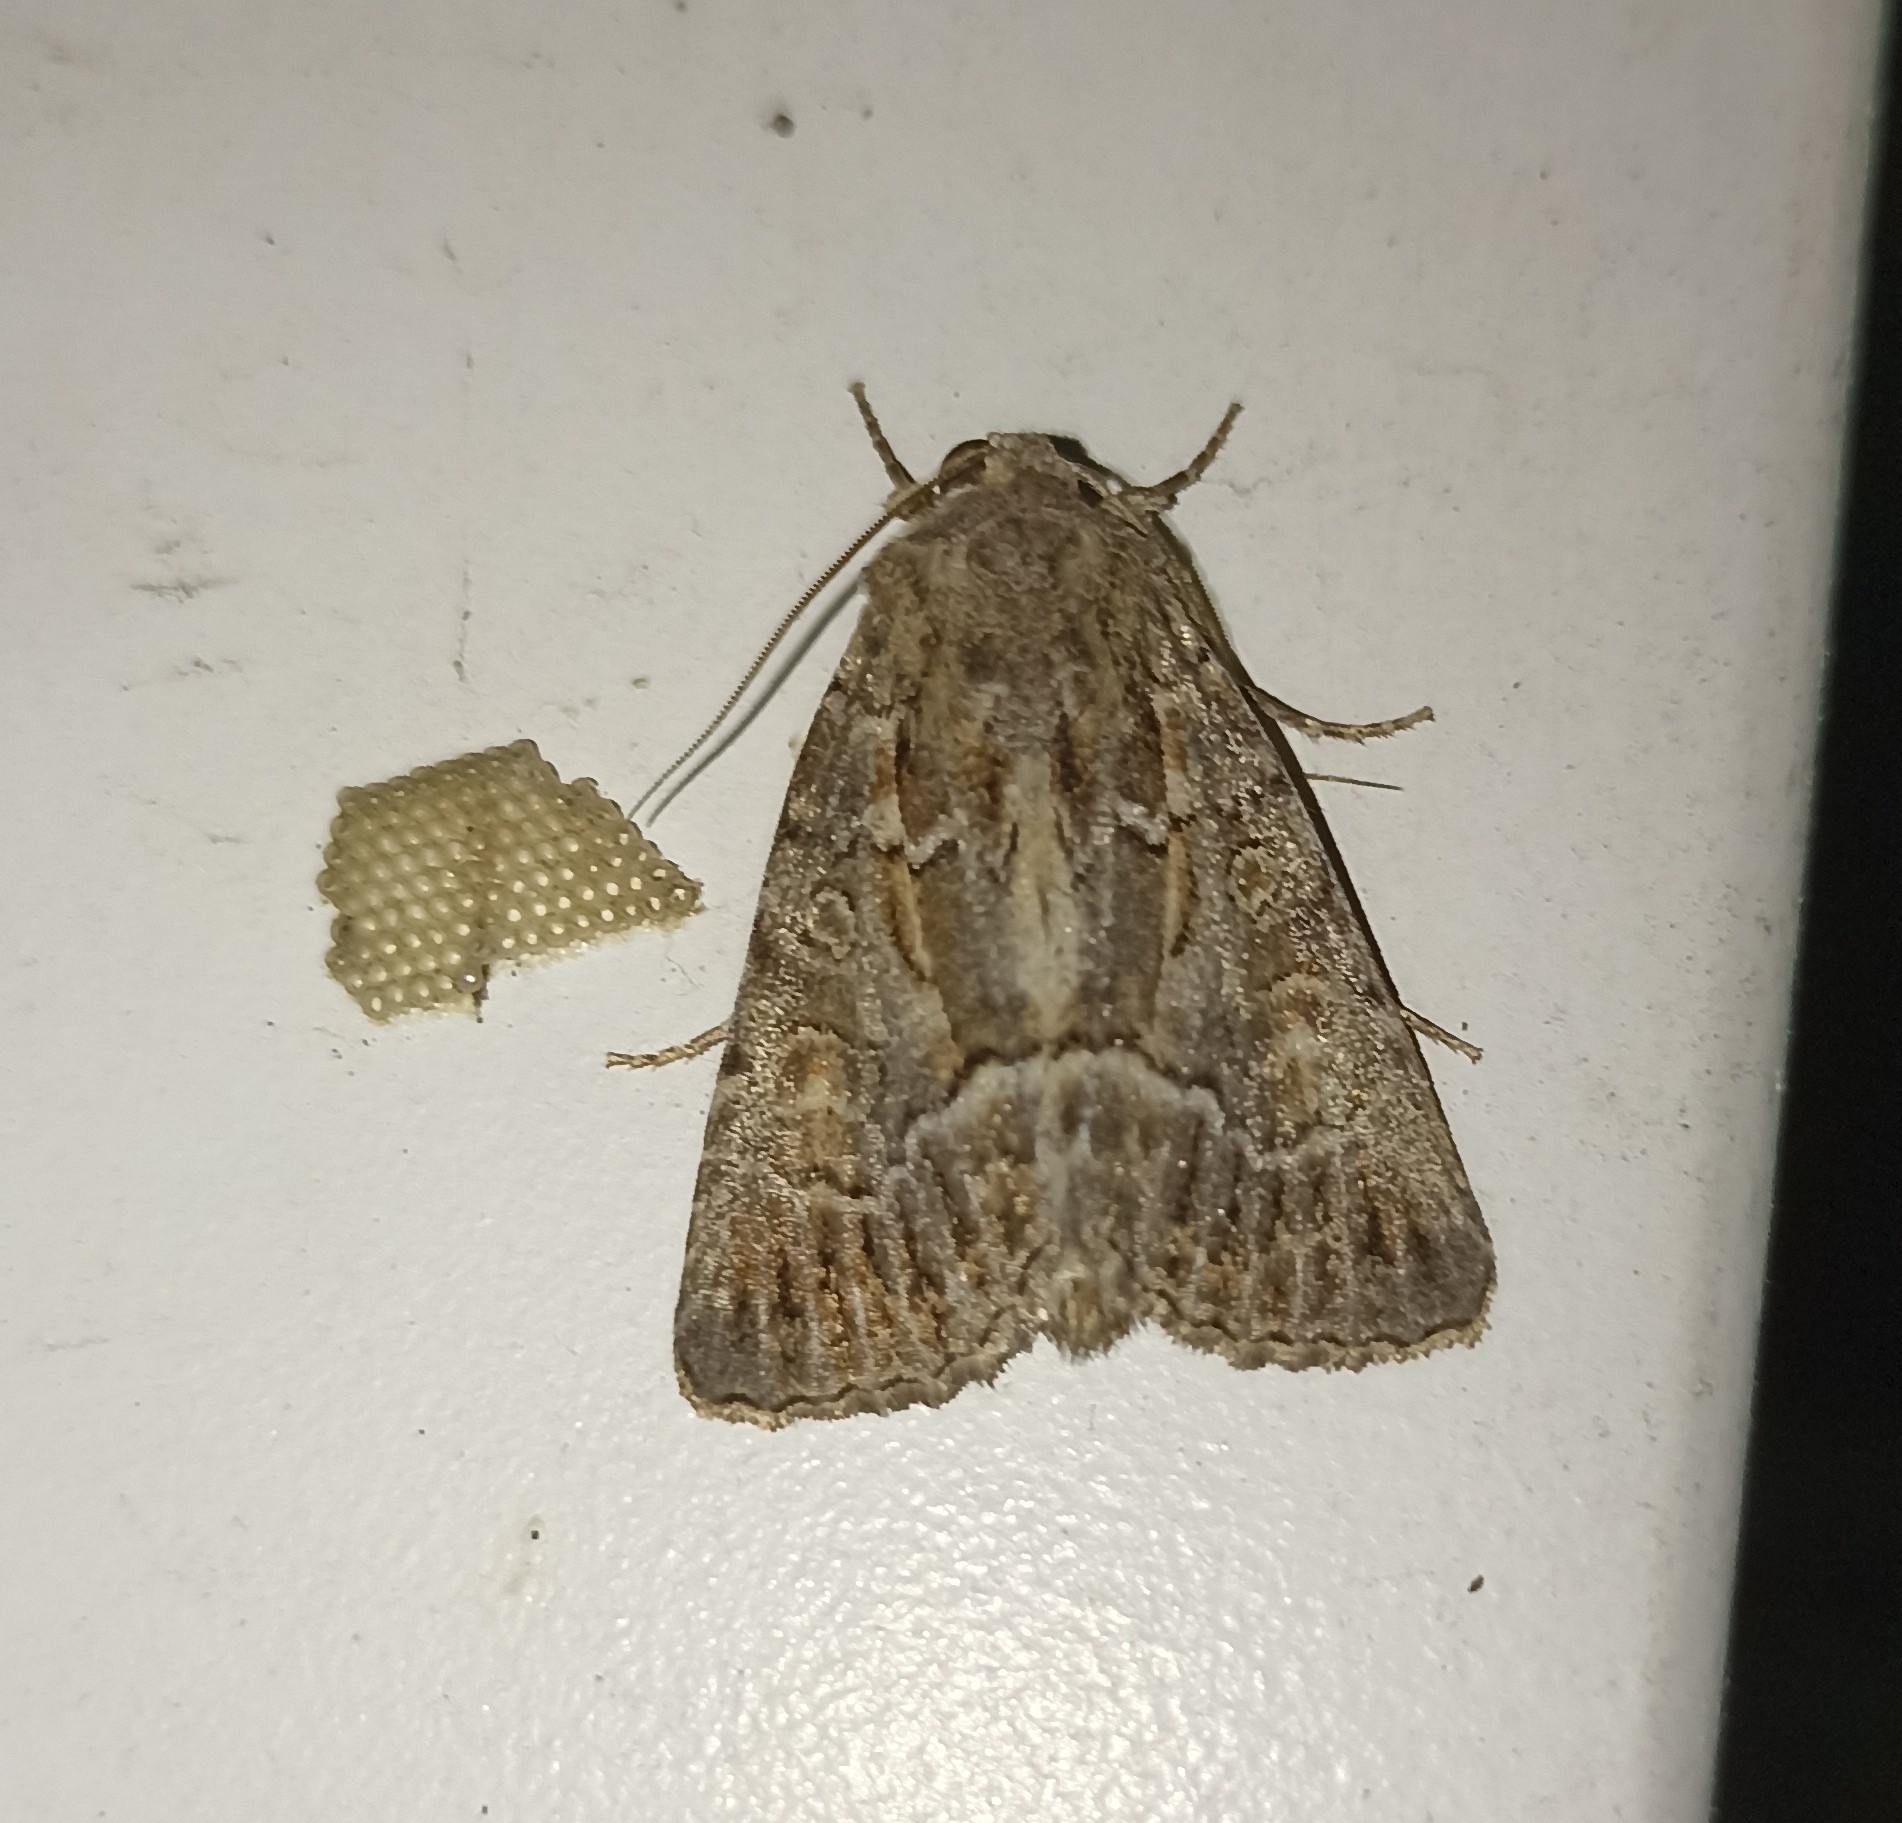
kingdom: Animalia
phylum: Arthropoda
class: Insecta
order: Lepidoptera
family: Noctuidae
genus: Thalpophila
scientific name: Thalpophila matura
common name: Straw underwing
